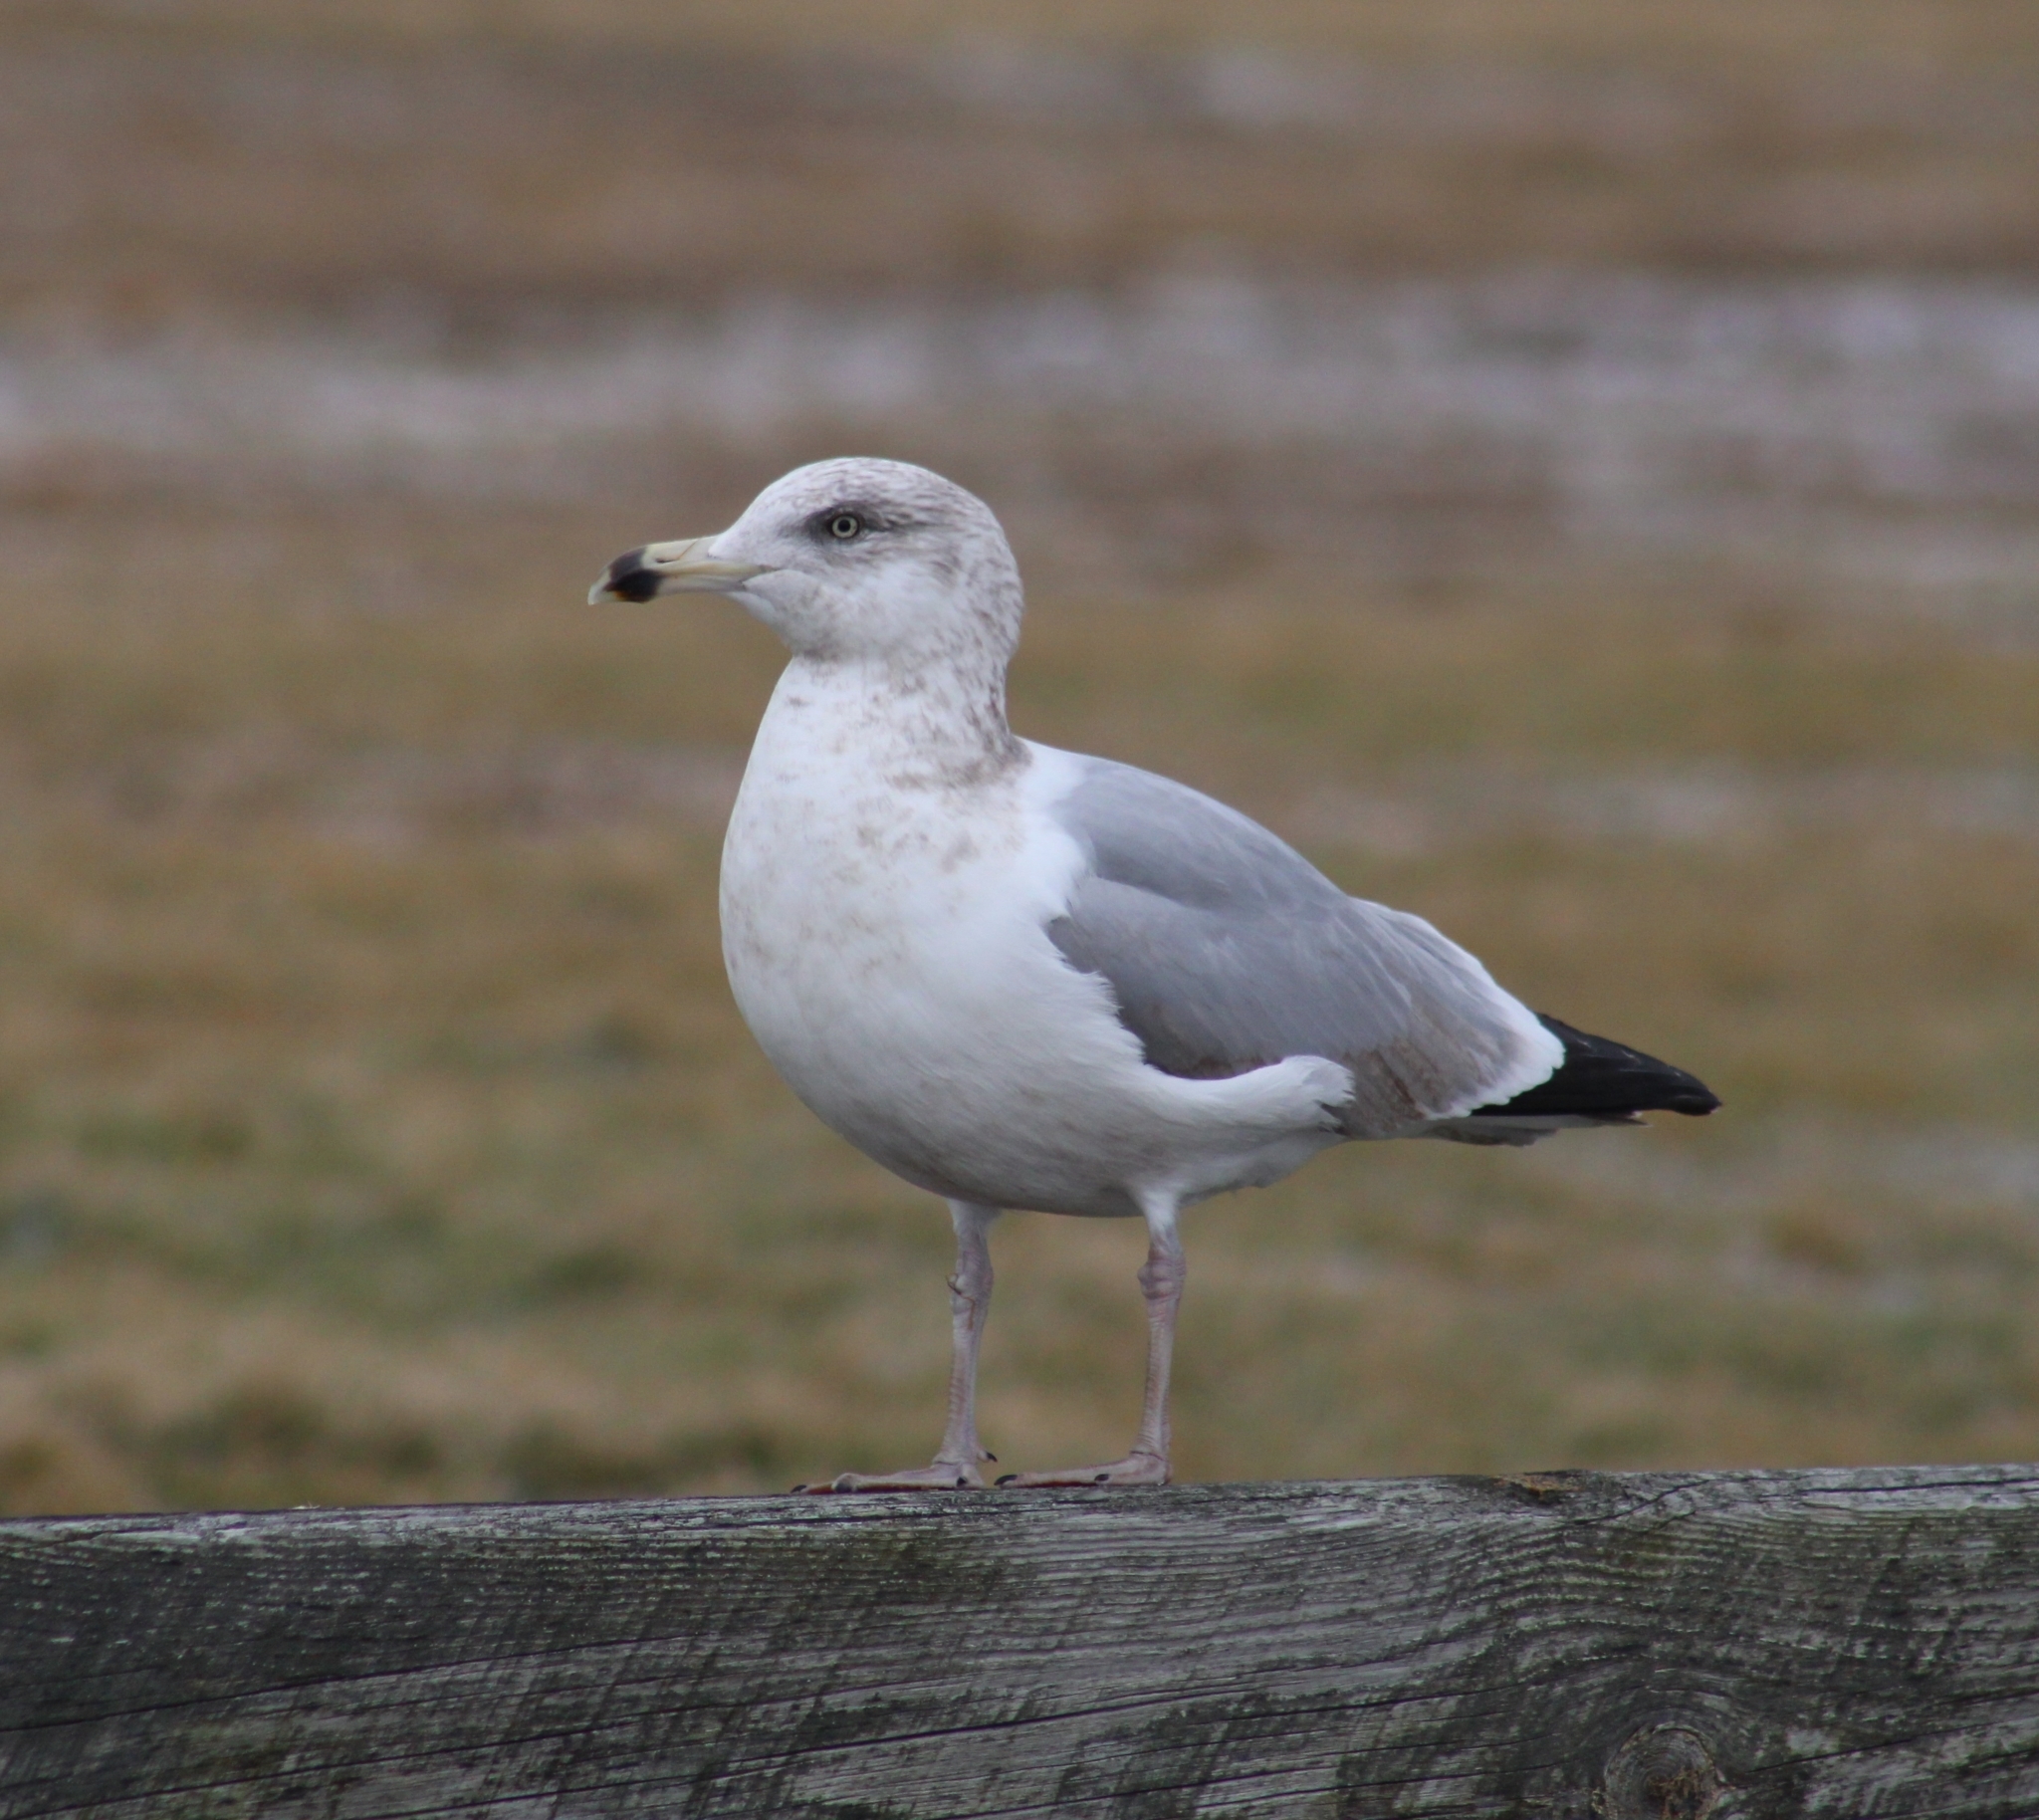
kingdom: Animalia
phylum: Chordata
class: Aves
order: Charadriiformes
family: Laridae
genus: Larus
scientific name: Larus argentatus
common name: Herring gull
